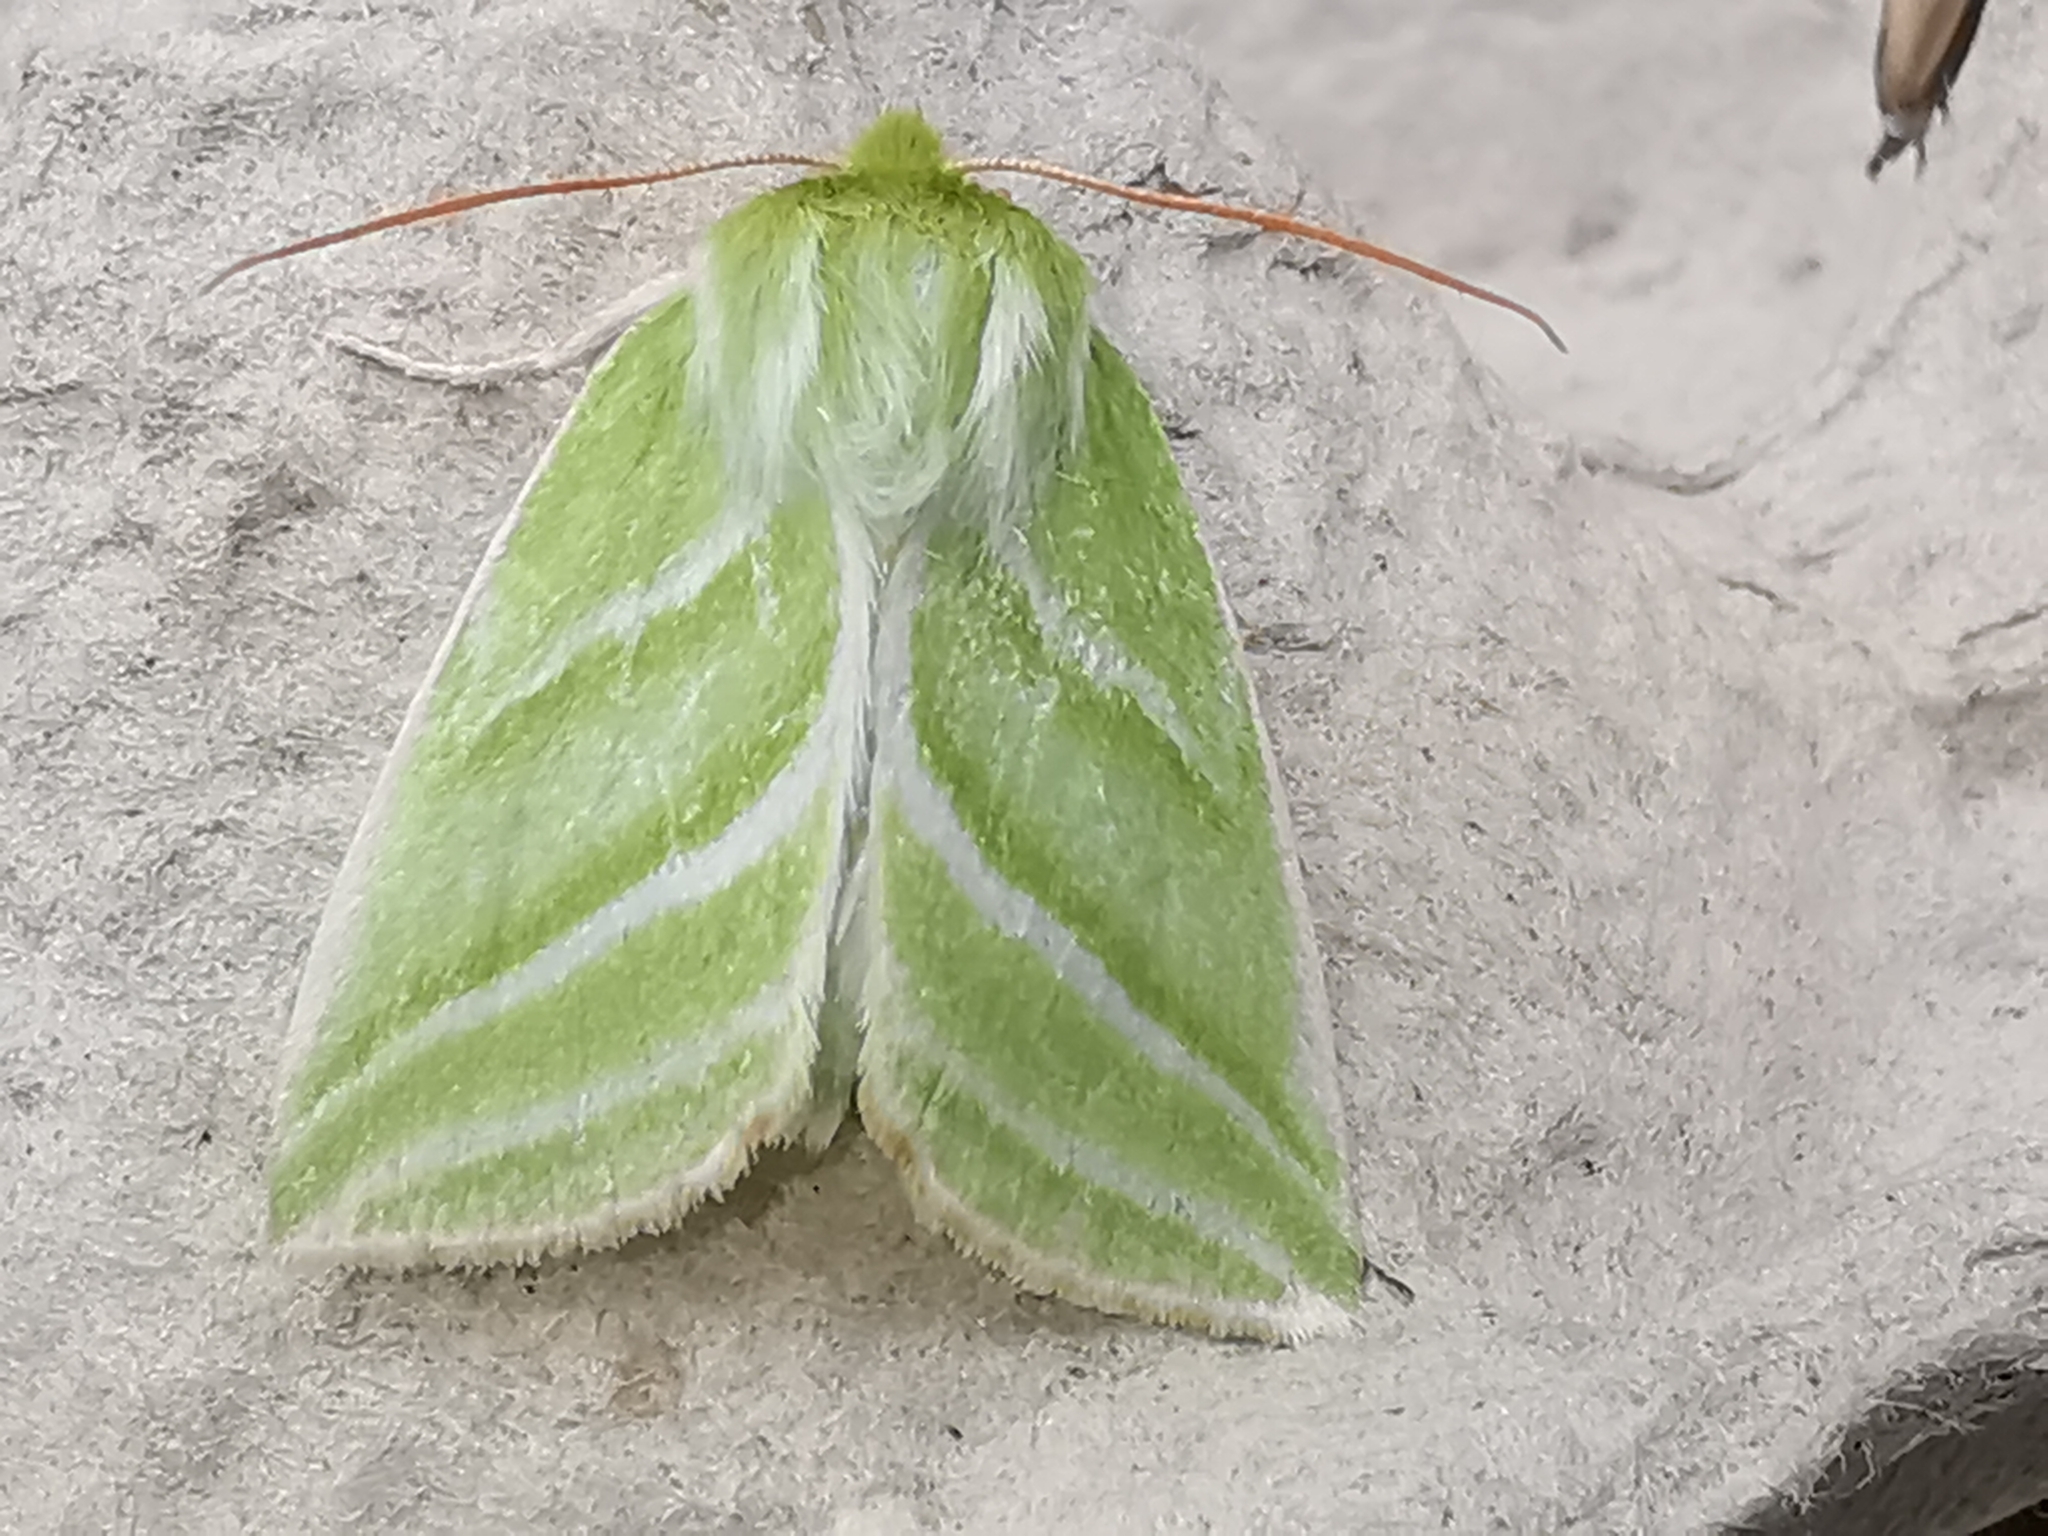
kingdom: Animalia
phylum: Arthropoda
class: Insecta
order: Lepidoptera
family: Nolidae
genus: Pseudoips
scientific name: Pseudoips prasinana
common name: Green silver-lines
